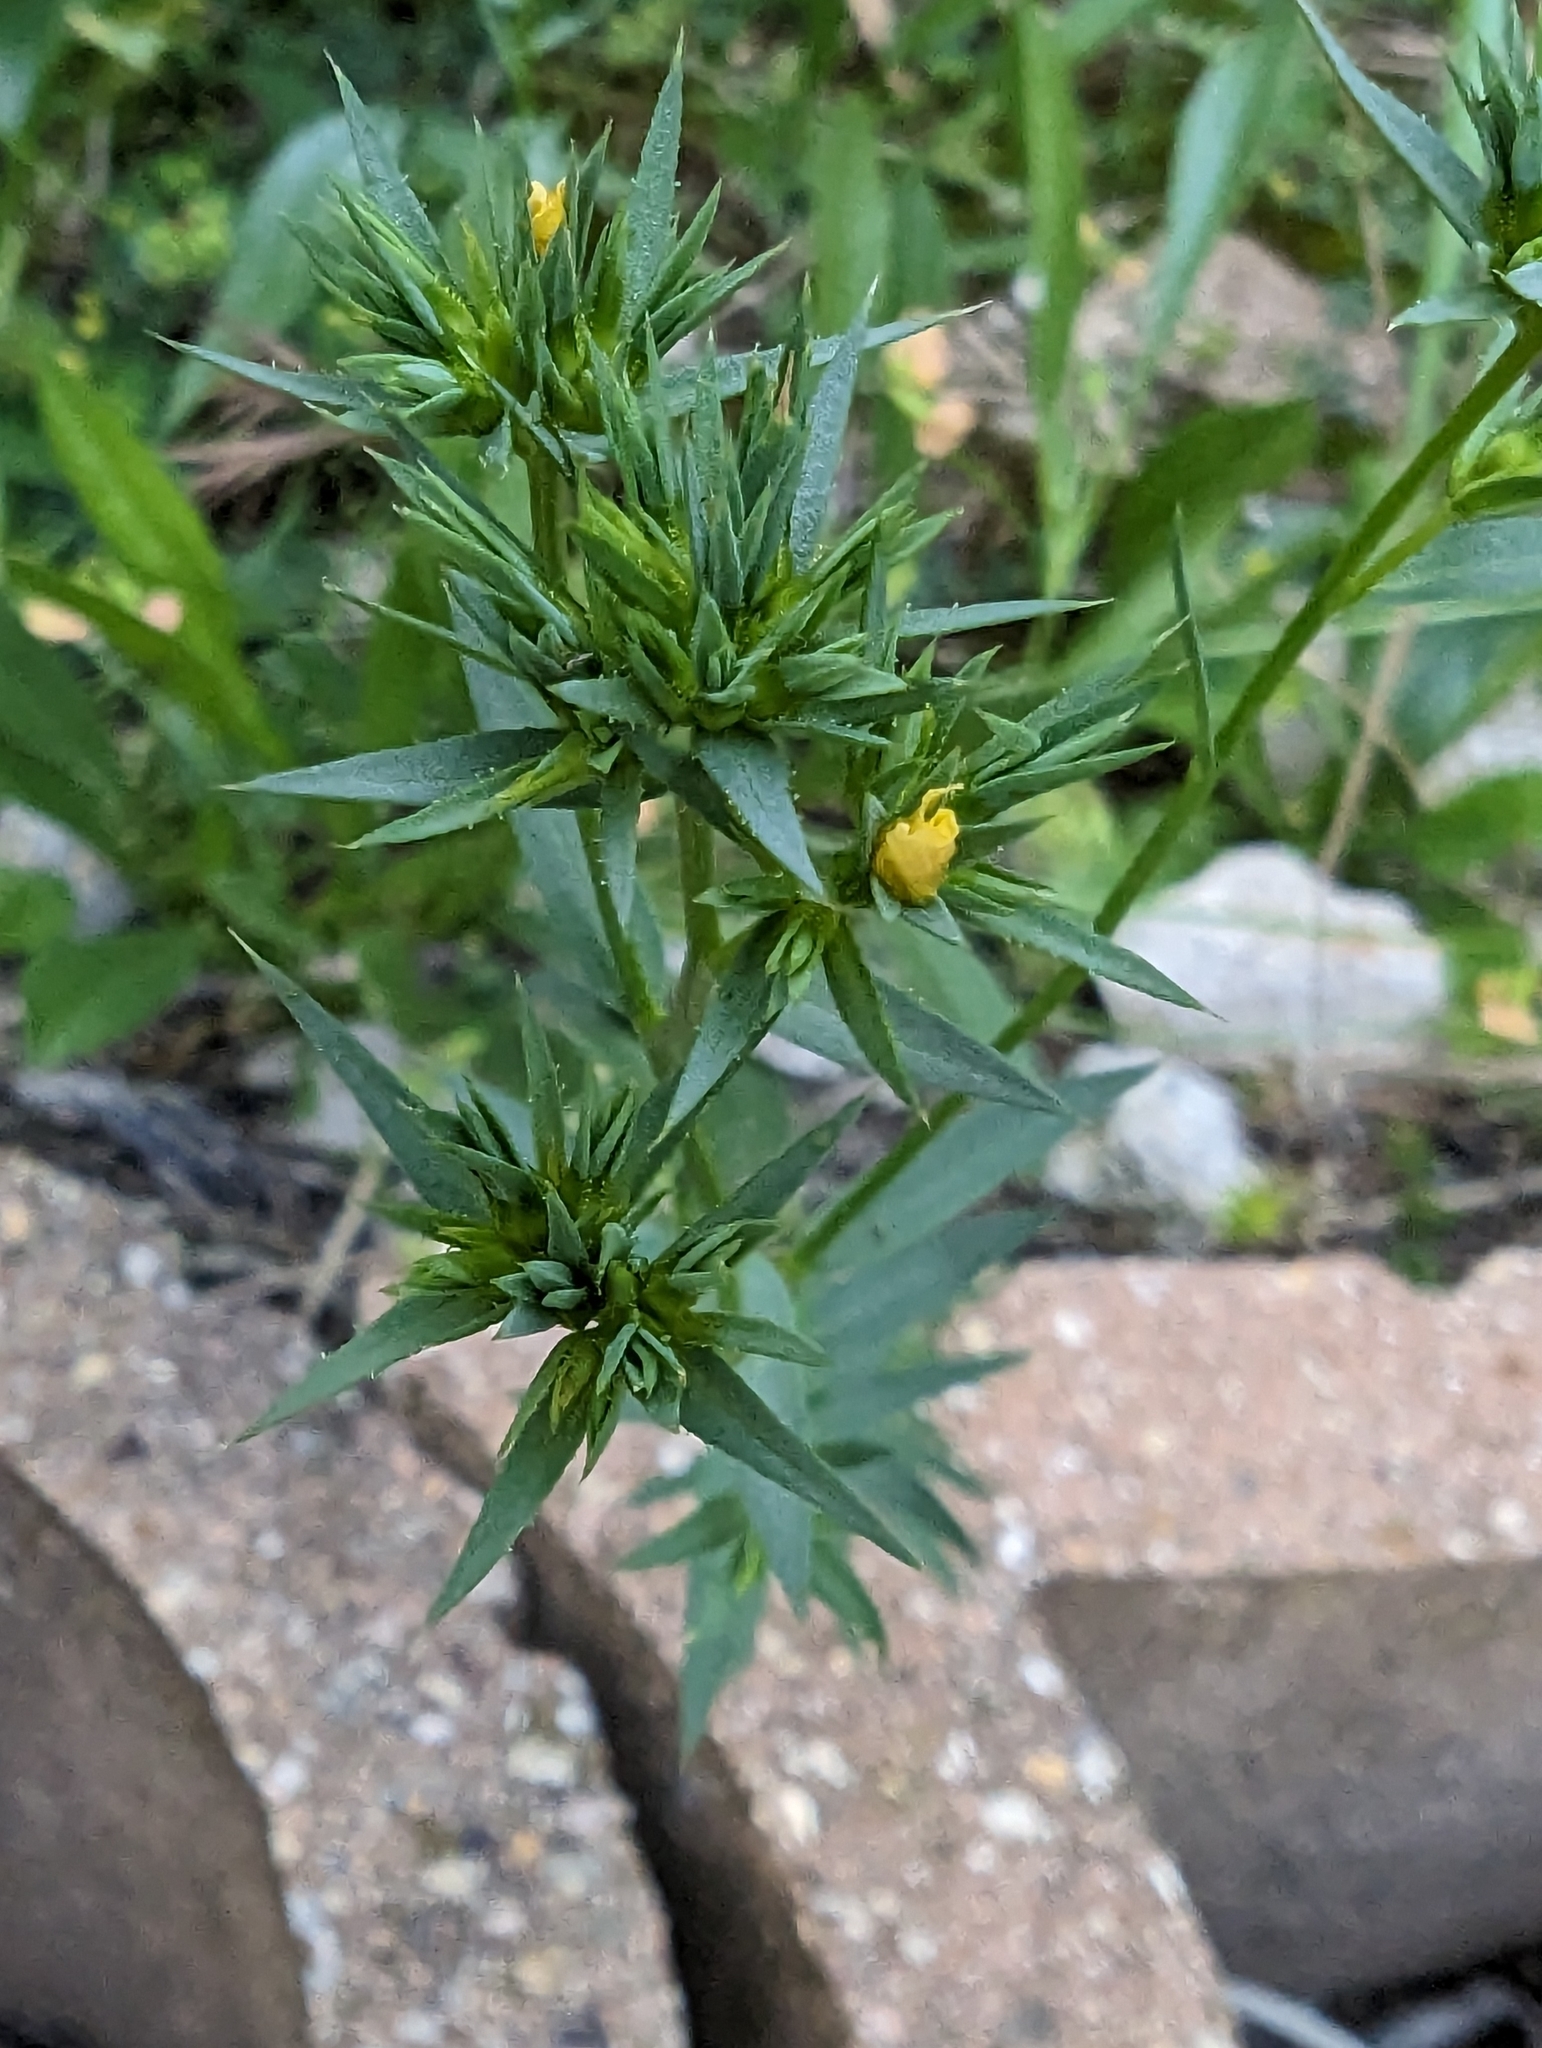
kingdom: Plantae
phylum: Tracheophyta
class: Magnoliopsida
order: Malpighiales
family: Linaceae
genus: Linum
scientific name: Linum strictum
